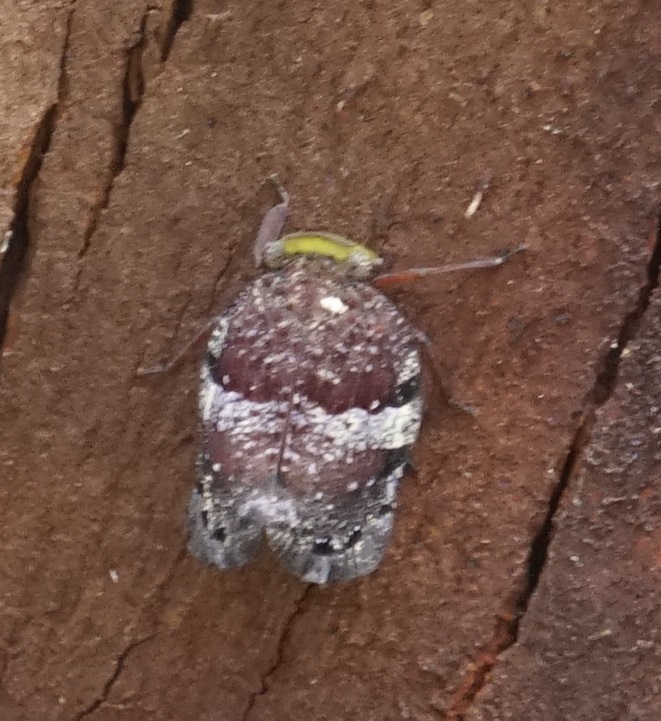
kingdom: Animalia
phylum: Arthropoda
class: Insecta
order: Hemiptera
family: Eurybrachidae
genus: Platybrachys
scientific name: Platybrachys decemmacula
